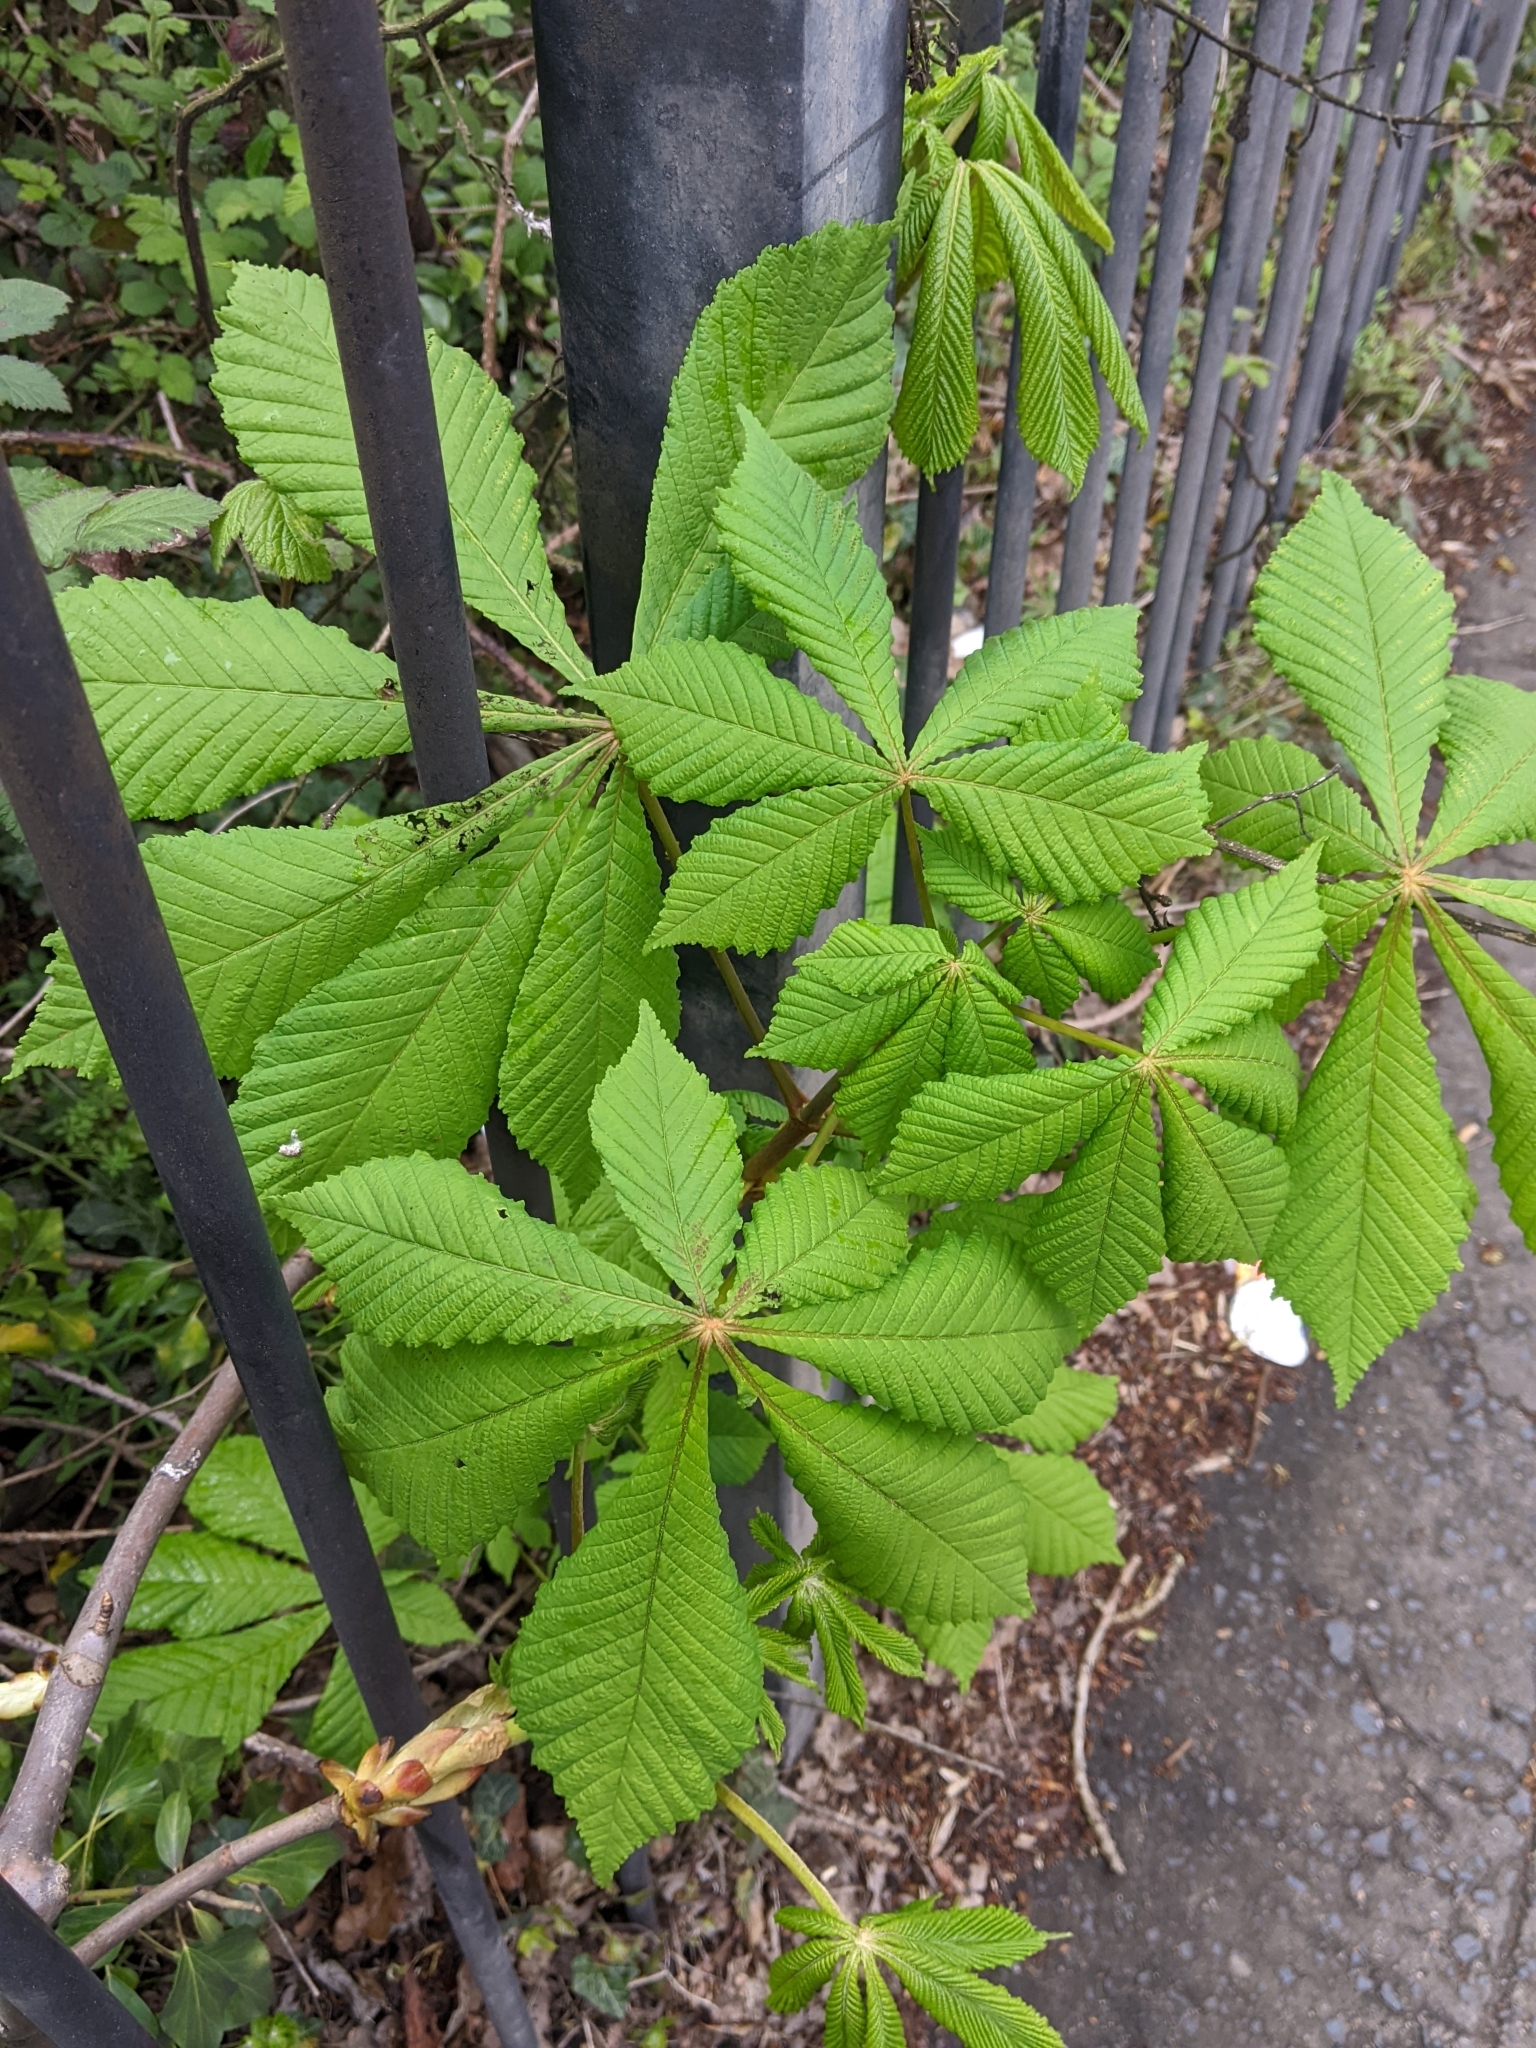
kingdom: Plantae
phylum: Tracheophyta
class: Magnoliopsida
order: Sapindales
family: Sapindaceae
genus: Aesculus
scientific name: Aesculus hippocastanum
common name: Horse-chestnut
